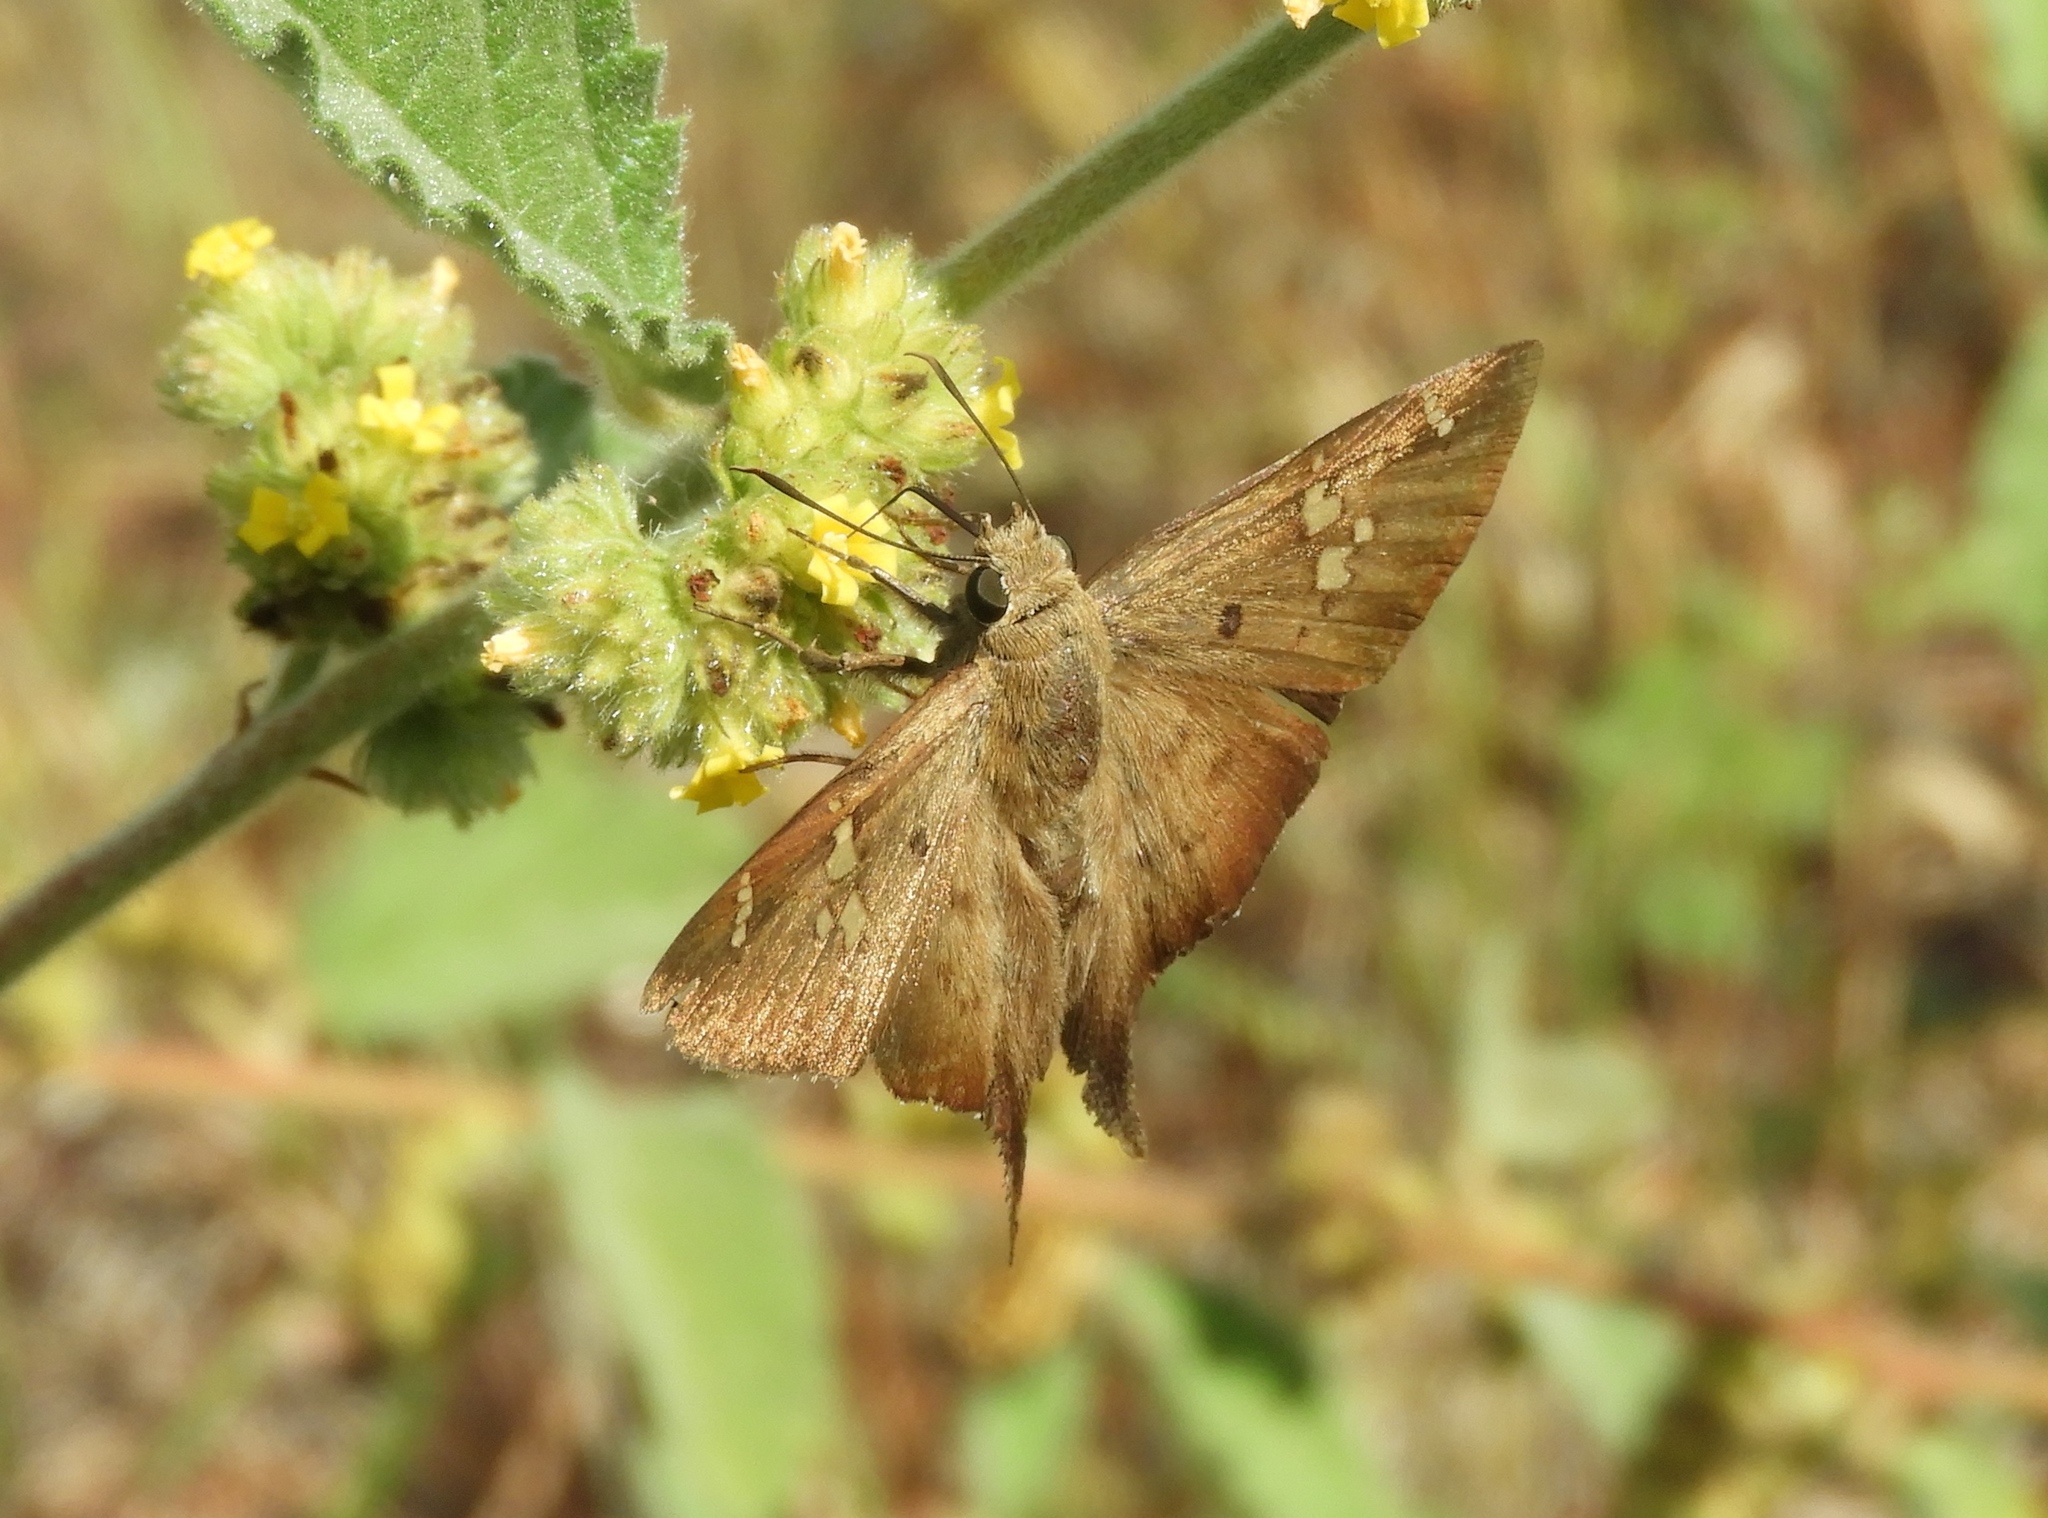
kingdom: Animalia
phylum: Arthropoda
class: Insecta
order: Lepidoptera
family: Hesperiidae
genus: Ectomis
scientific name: Ectomis
